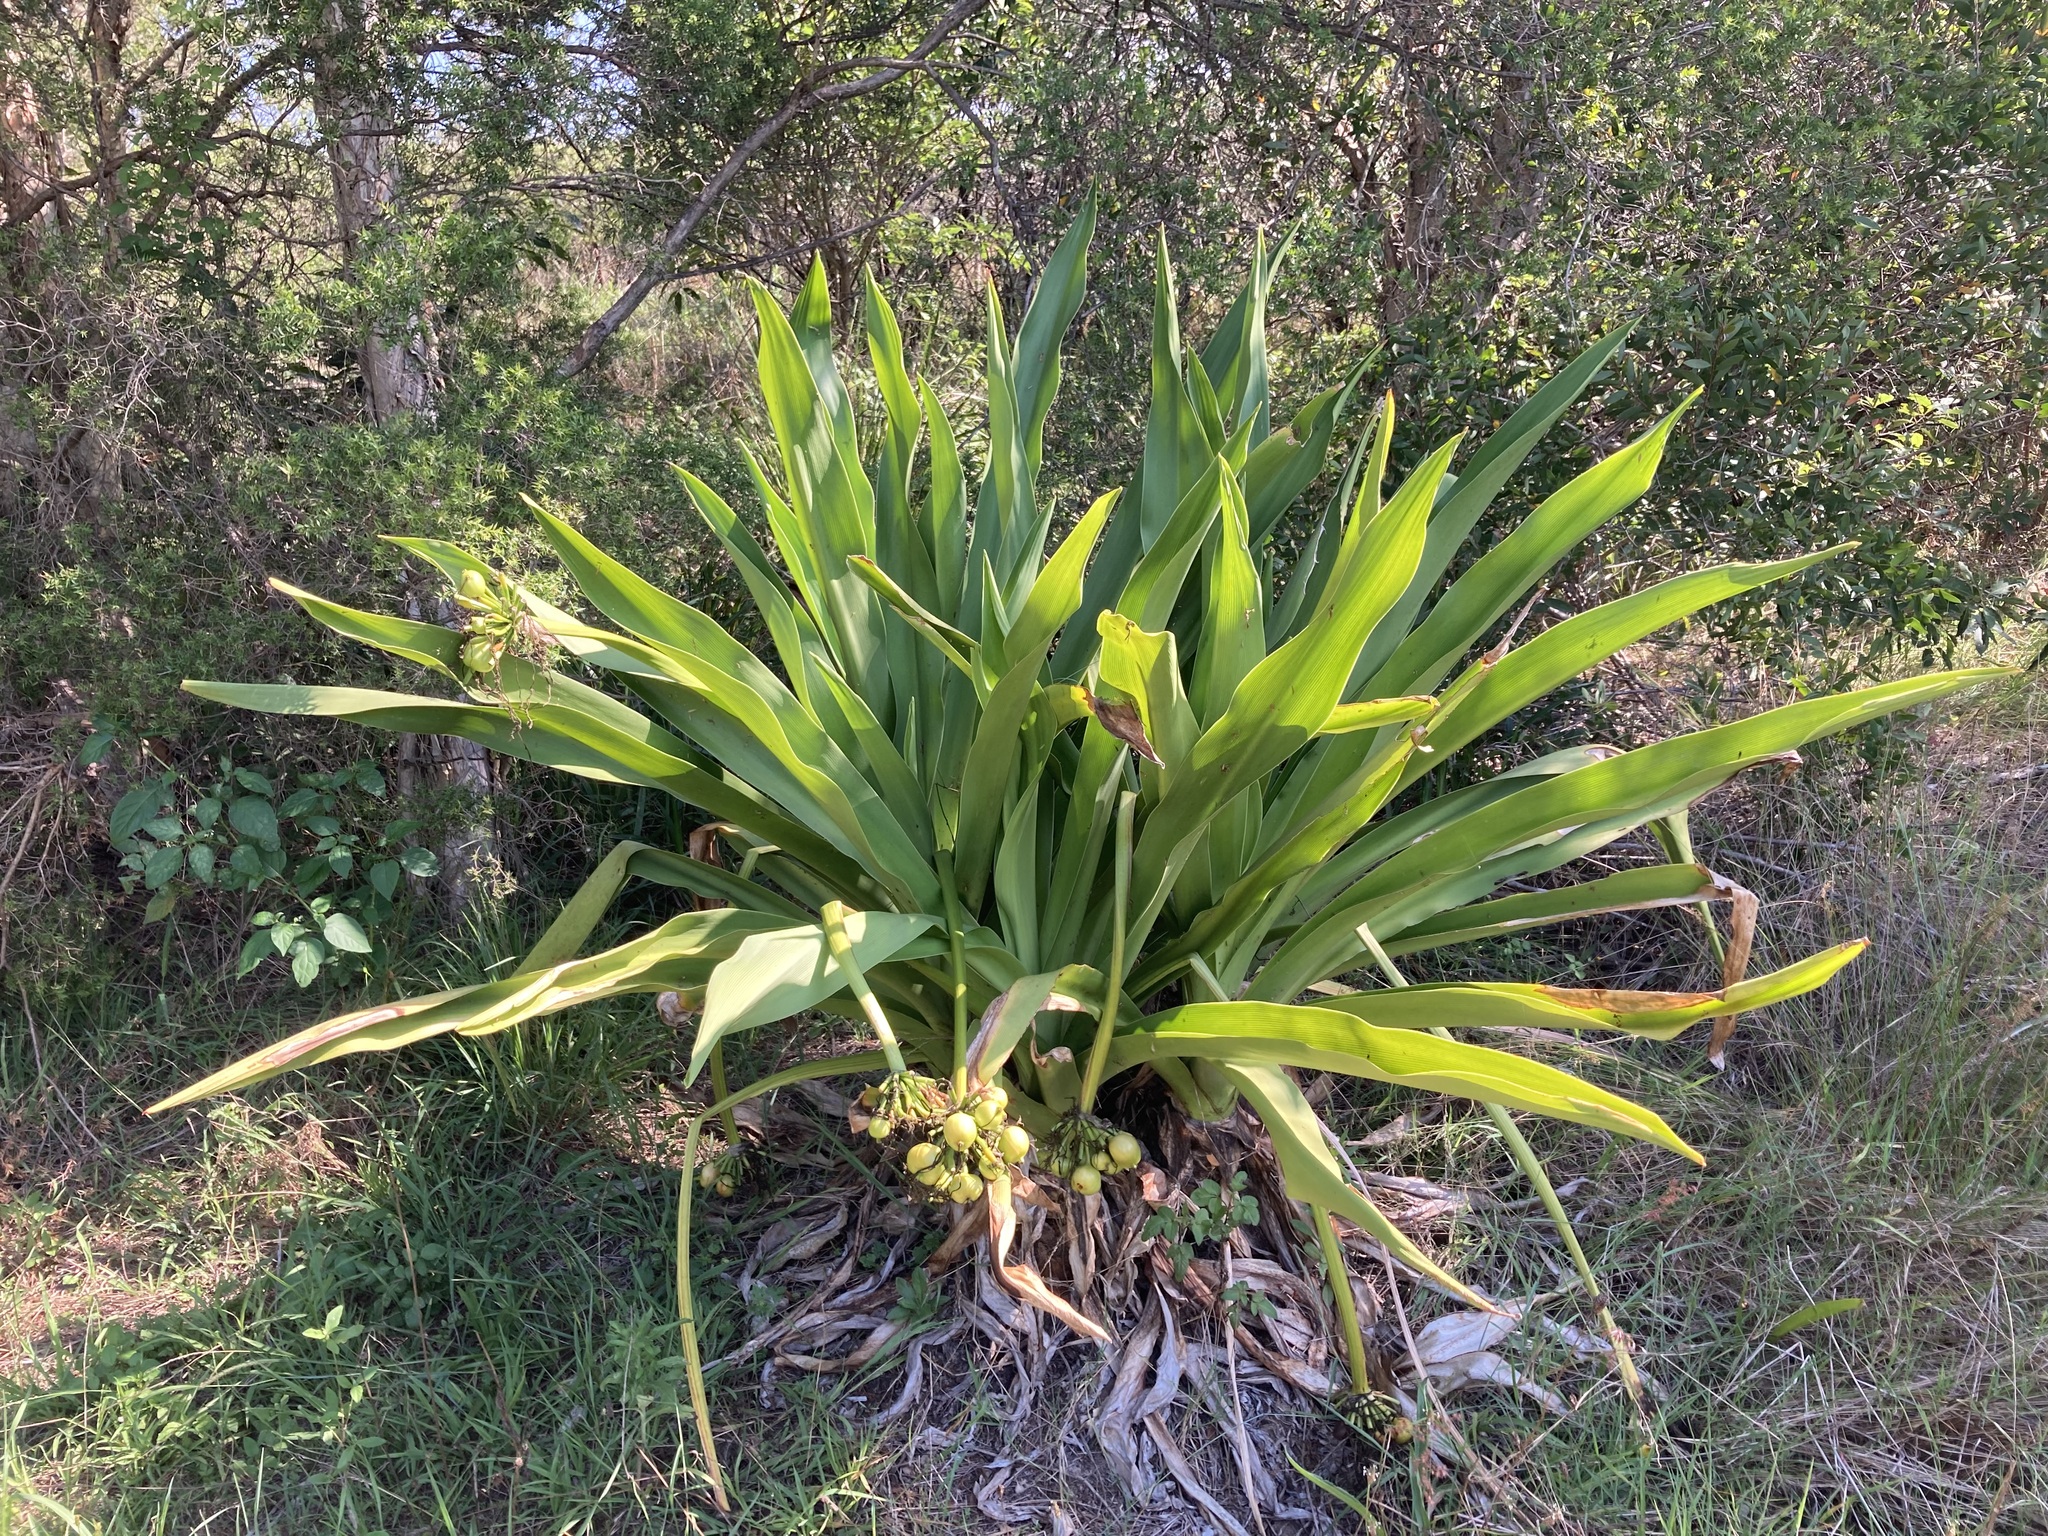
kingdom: Plantae
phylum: Tracheophyta
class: Liliopsida
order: Asparagales
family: Amaryllidaceae
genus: Crinum
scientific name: Crinum pedunculatum
